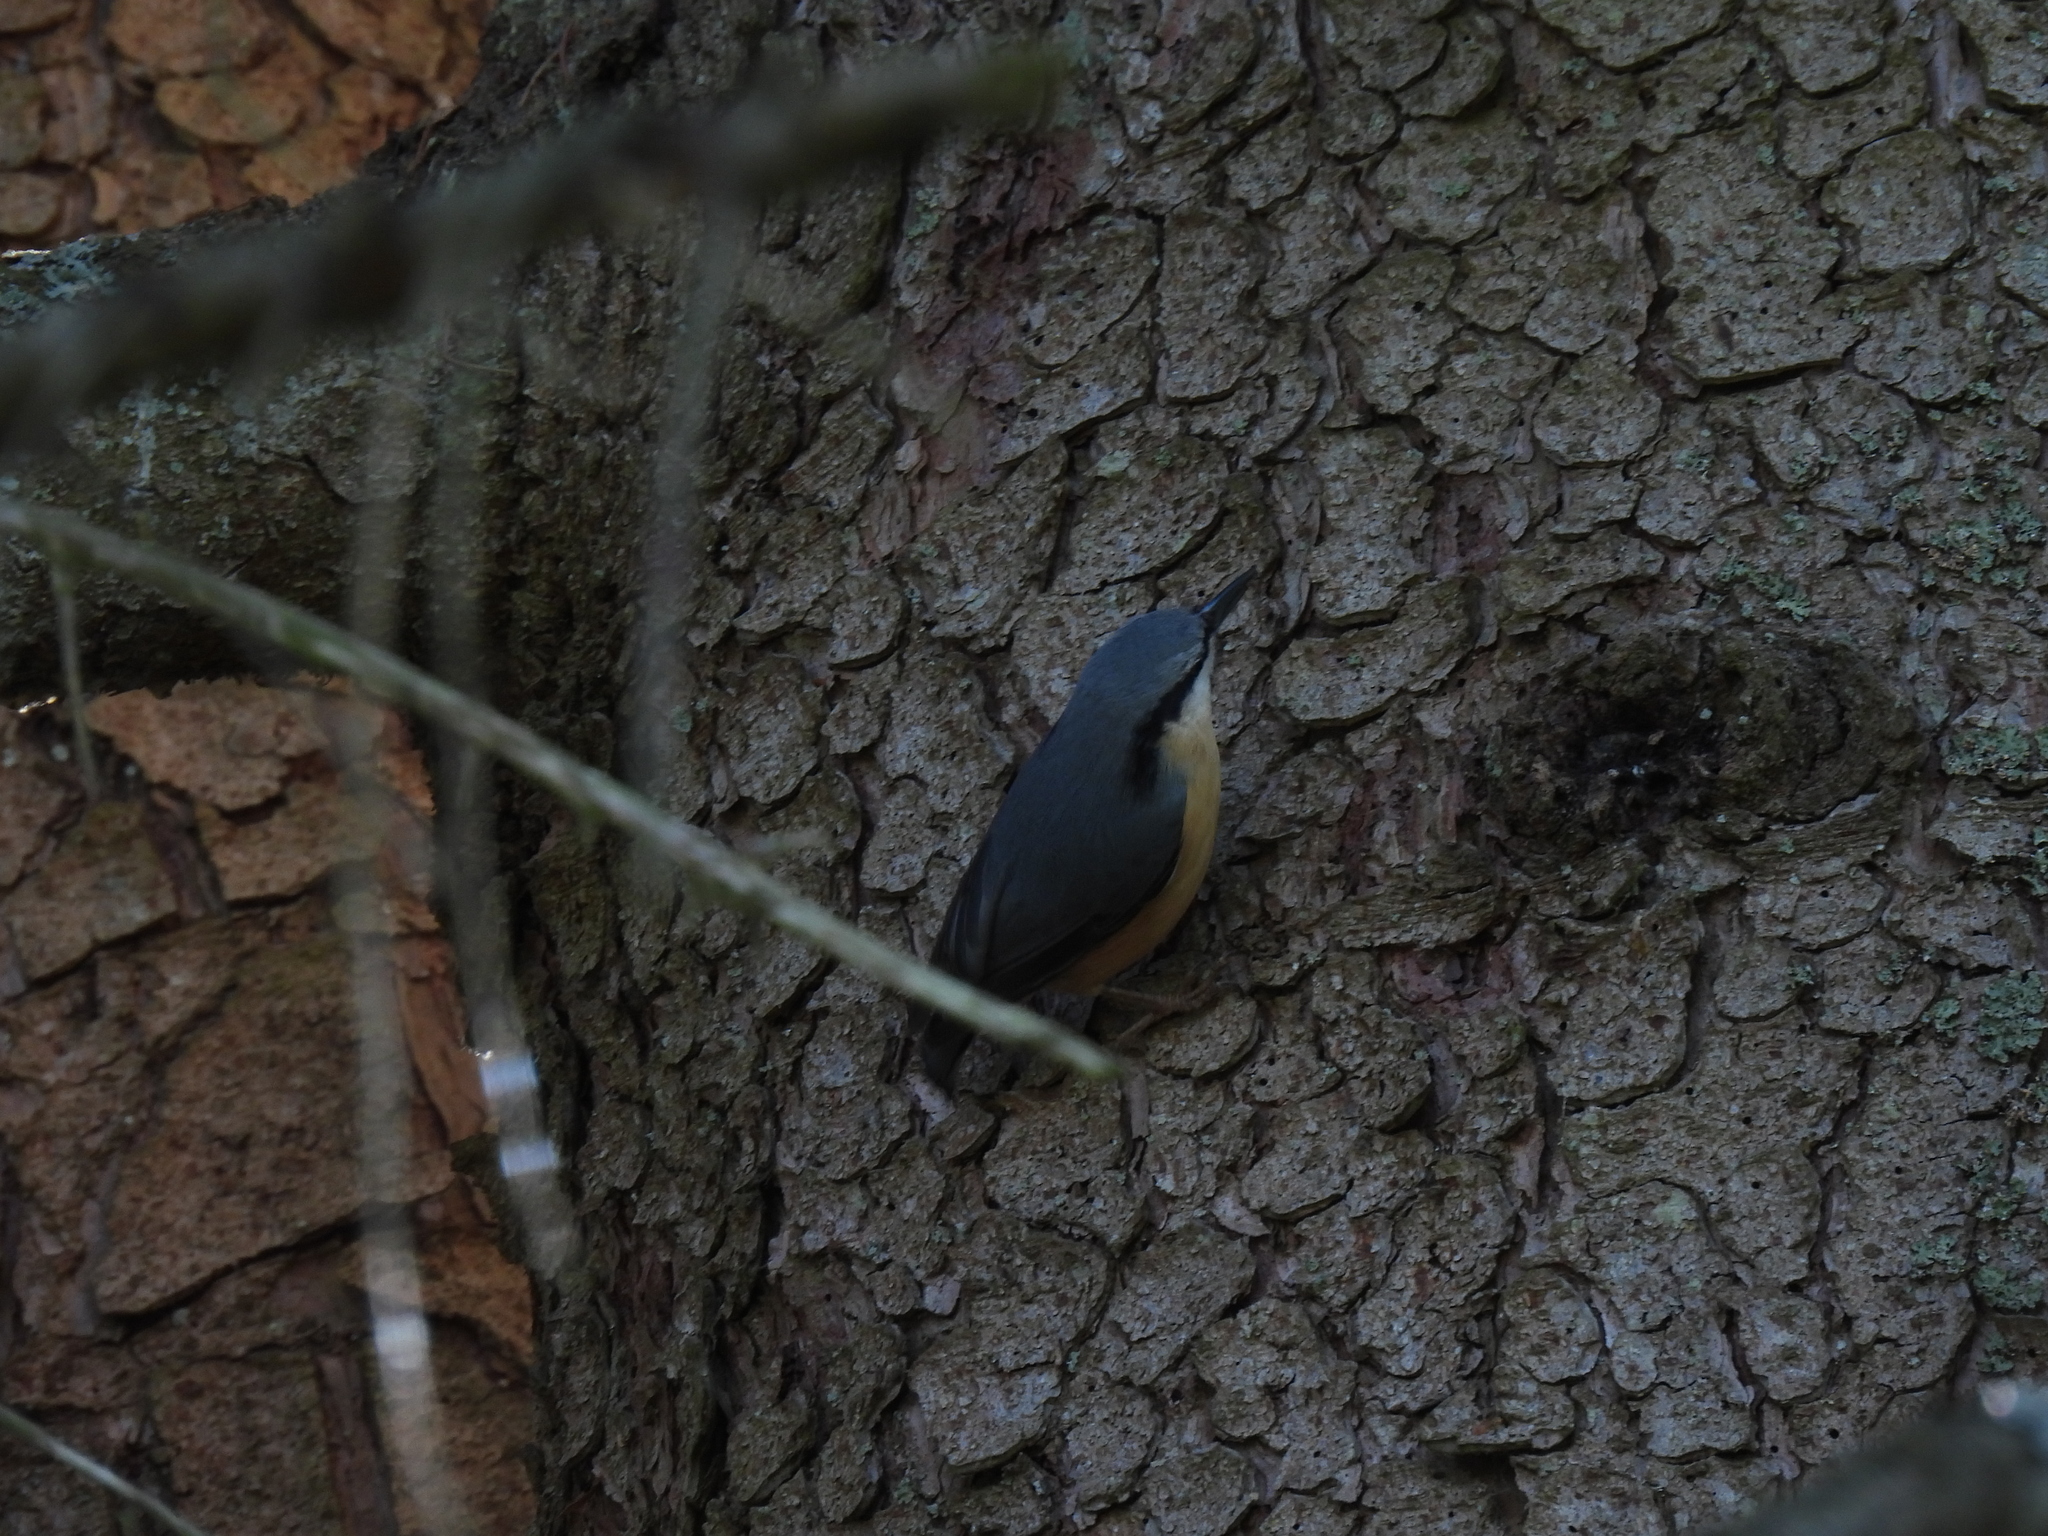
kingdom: Animalia
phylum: Chordata
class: Aves
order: Passeriformes
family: Sittidae
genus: Sitta
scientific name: Sitta europaea
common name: Eurasian nuthatch
